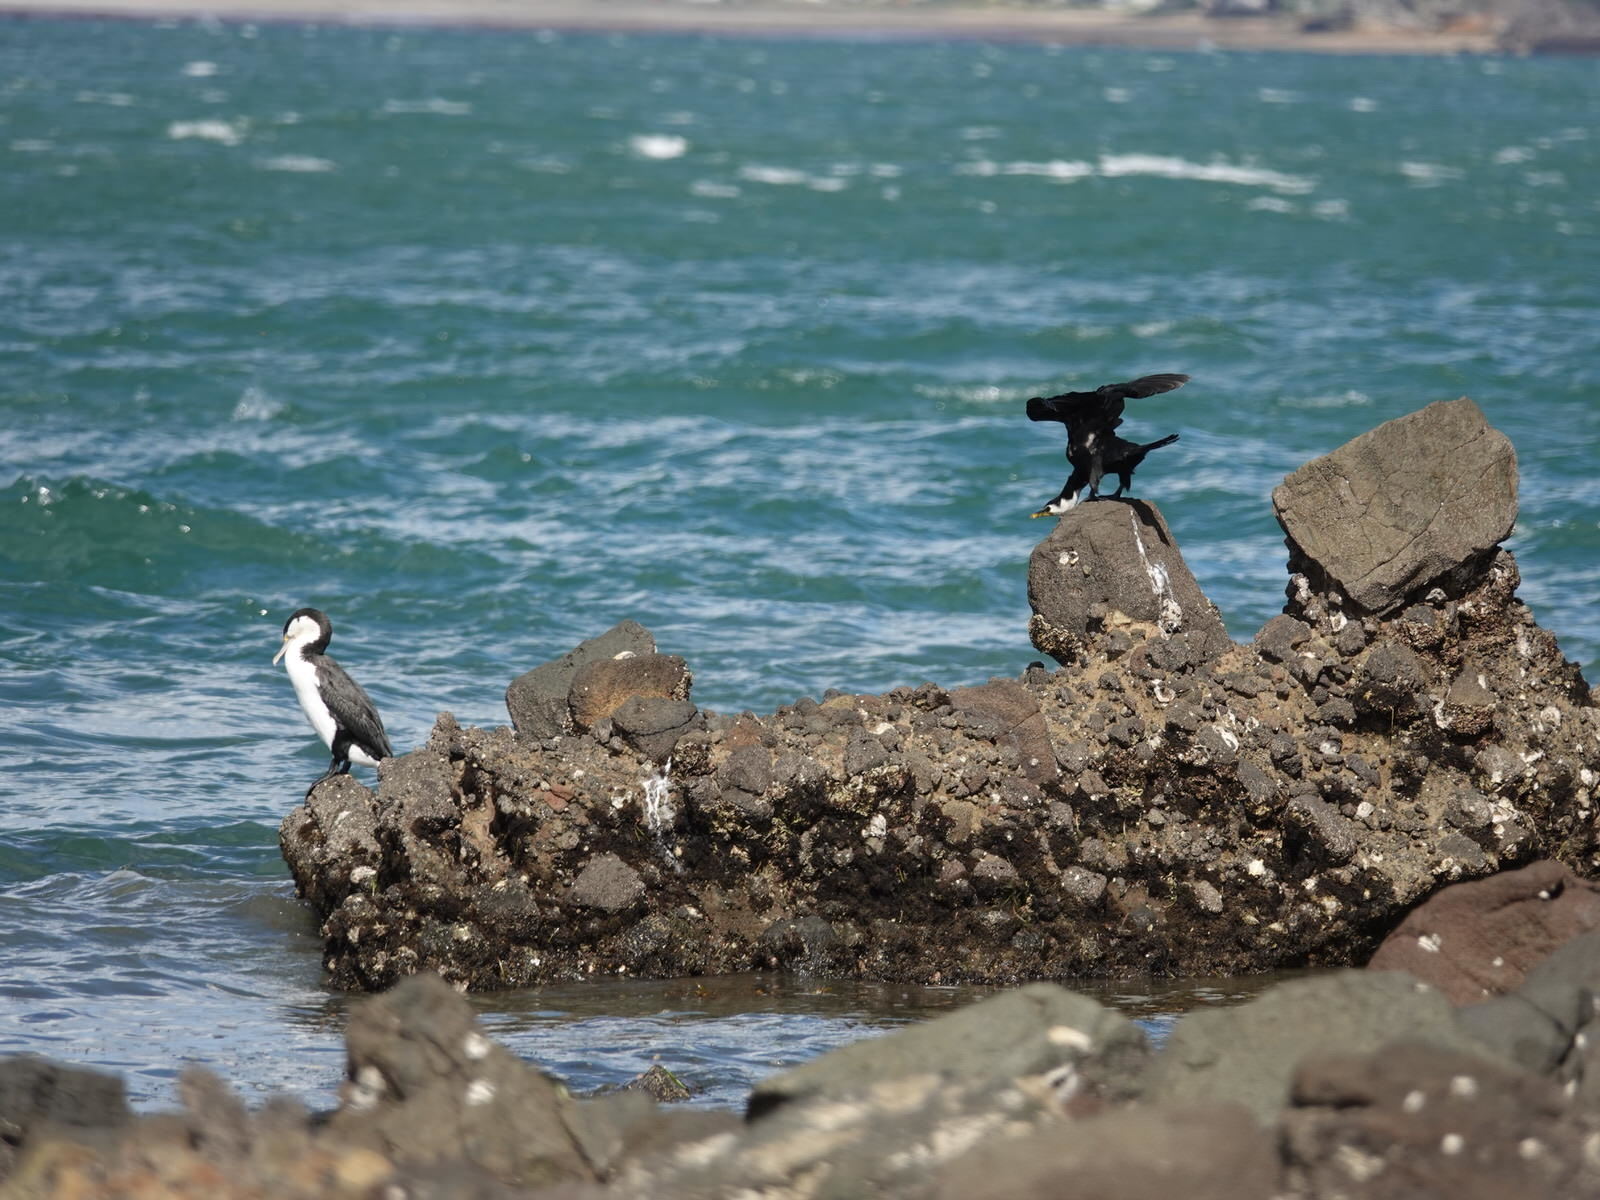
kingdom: Animalia
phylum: Chordata
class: Aves
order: Suliformes
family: Phalacrocoracidae
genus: Microcarbo
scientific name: Microcarbo melanoleucos
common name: Little pied cormorant
